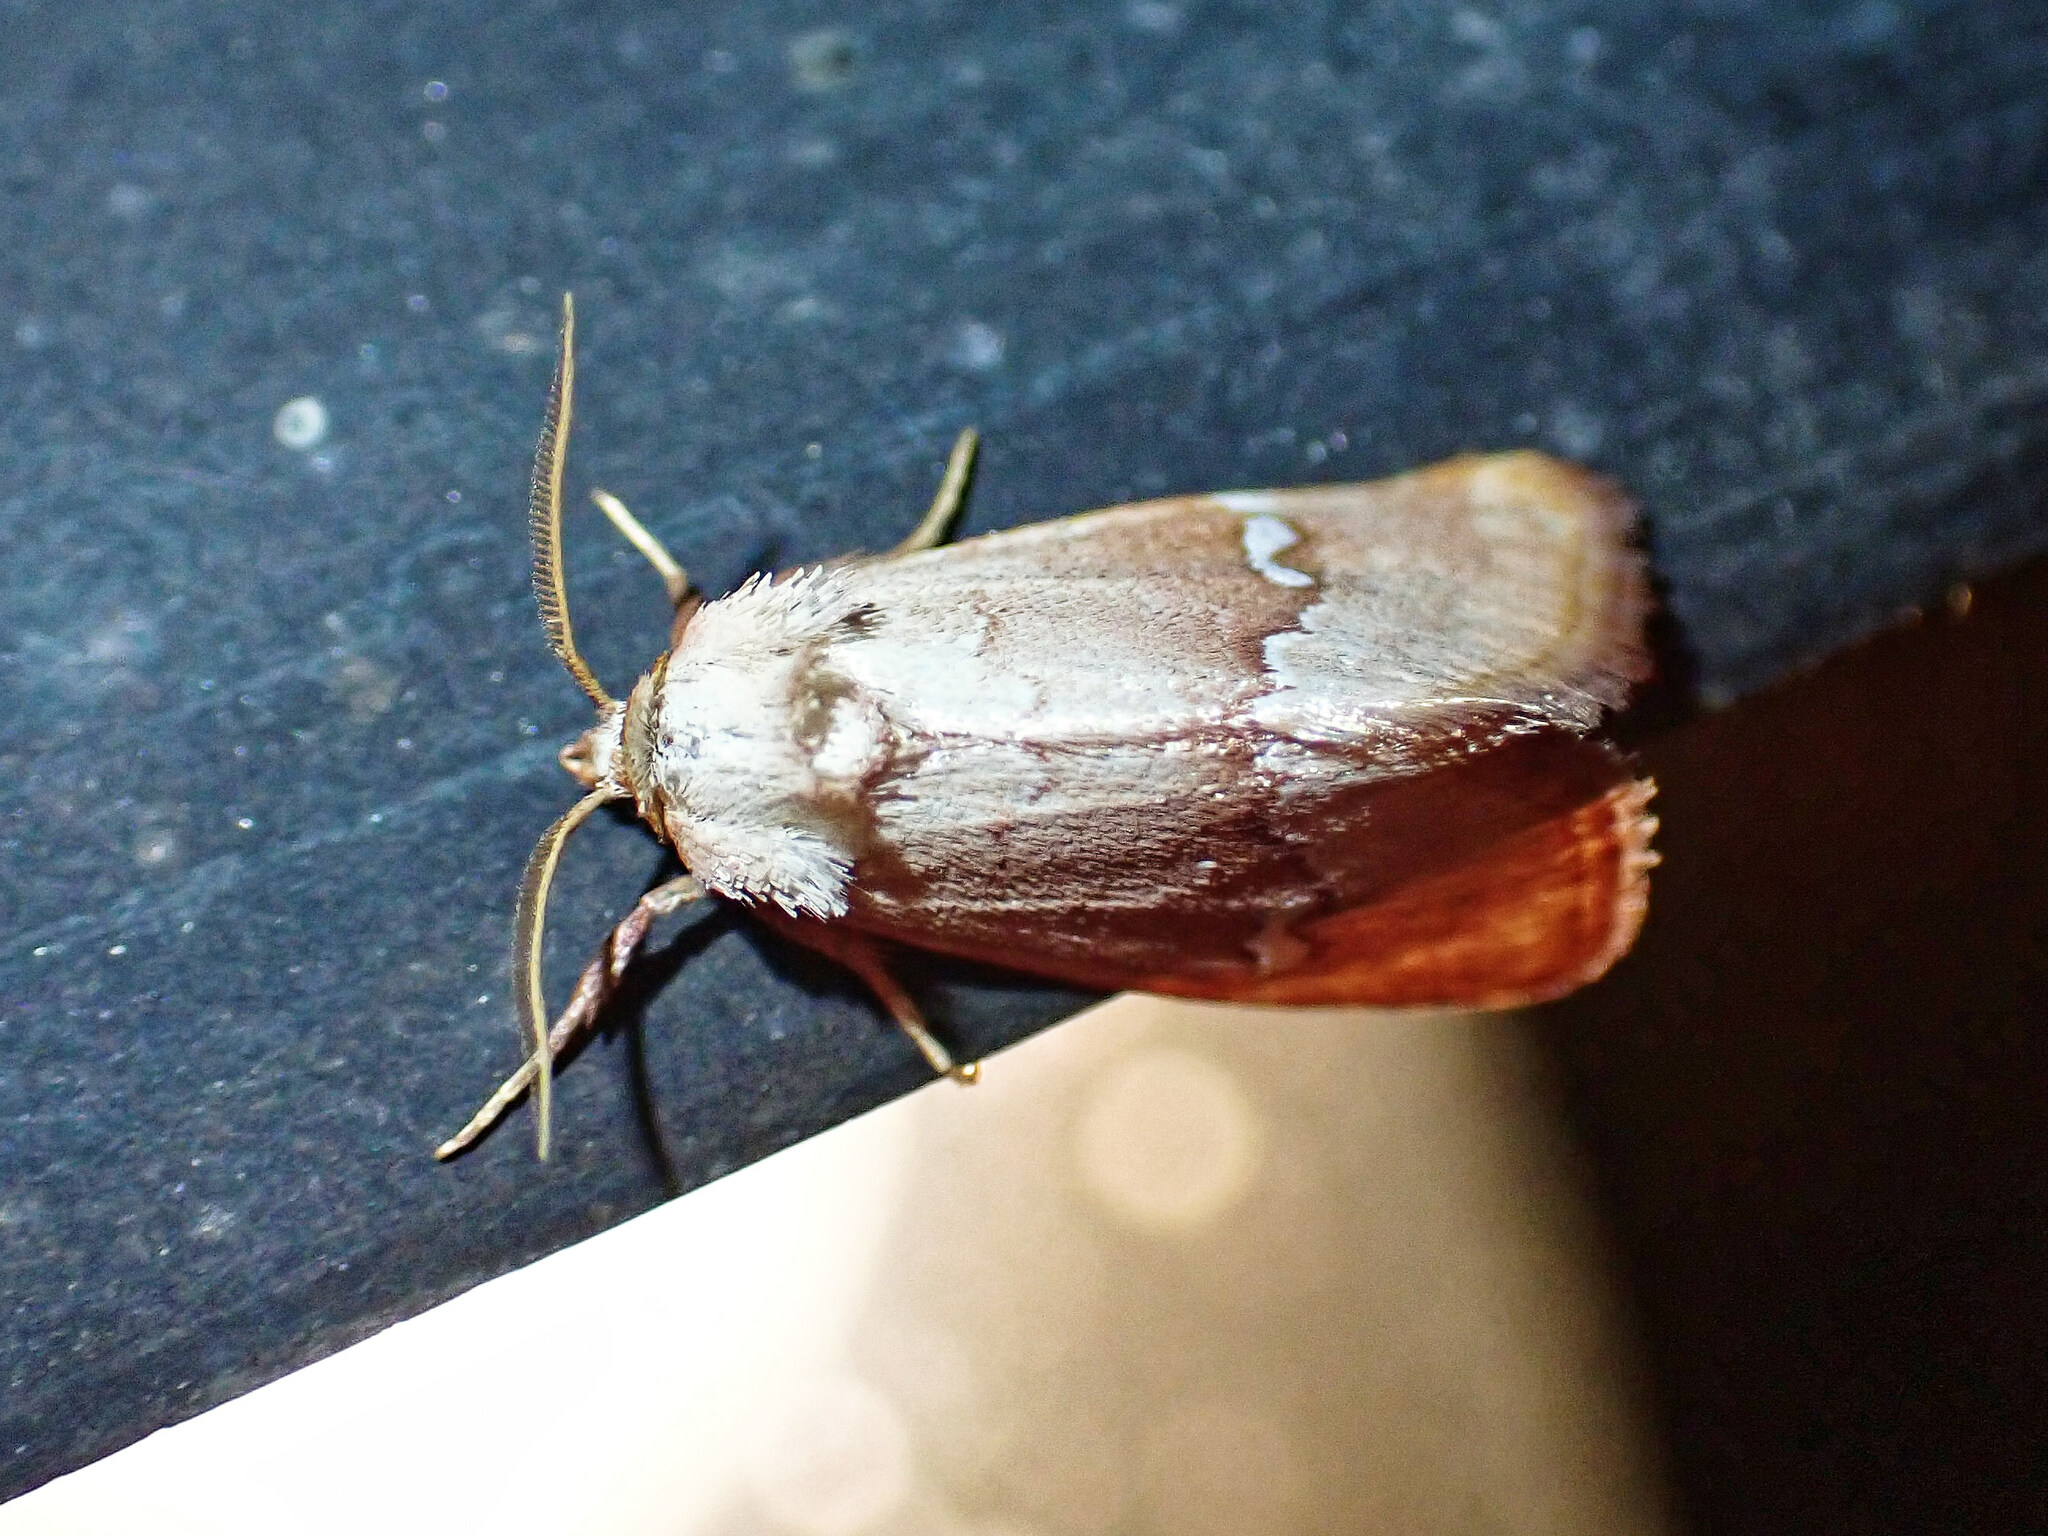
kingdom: Animalia
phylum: Arthropoda
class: Insecta
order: Lepidoptera
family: Noctuidae
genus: Haemerosia
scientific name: Haemerosia renalis
